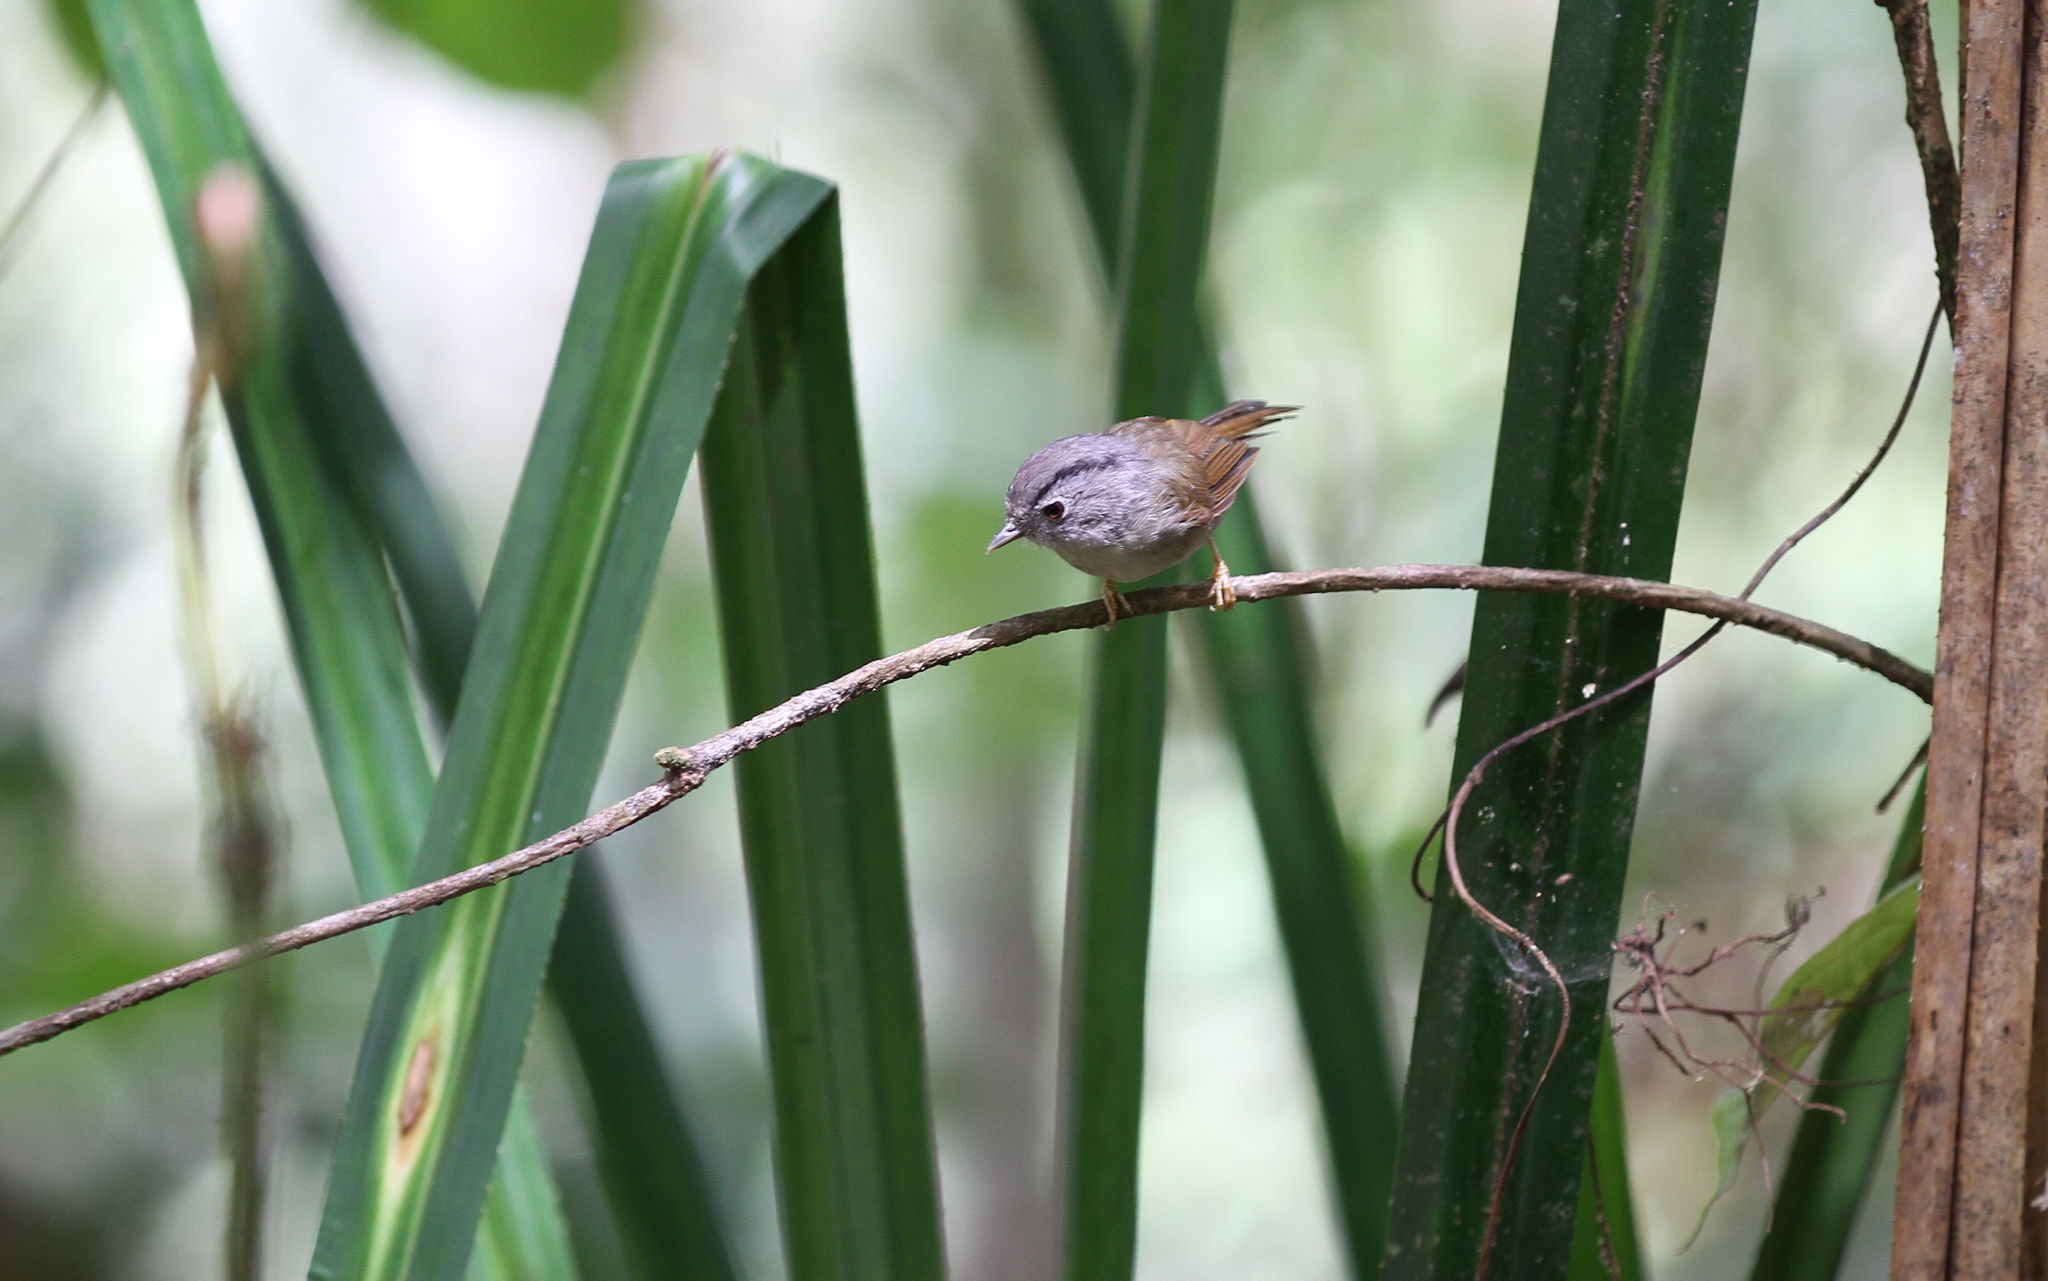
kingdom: Animalia
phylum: Chordata
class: Aves
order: Passeriformes
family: Pellorneidae
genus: Alcippe
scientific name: Alcippe peracensis
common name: Mountain fulvetta
